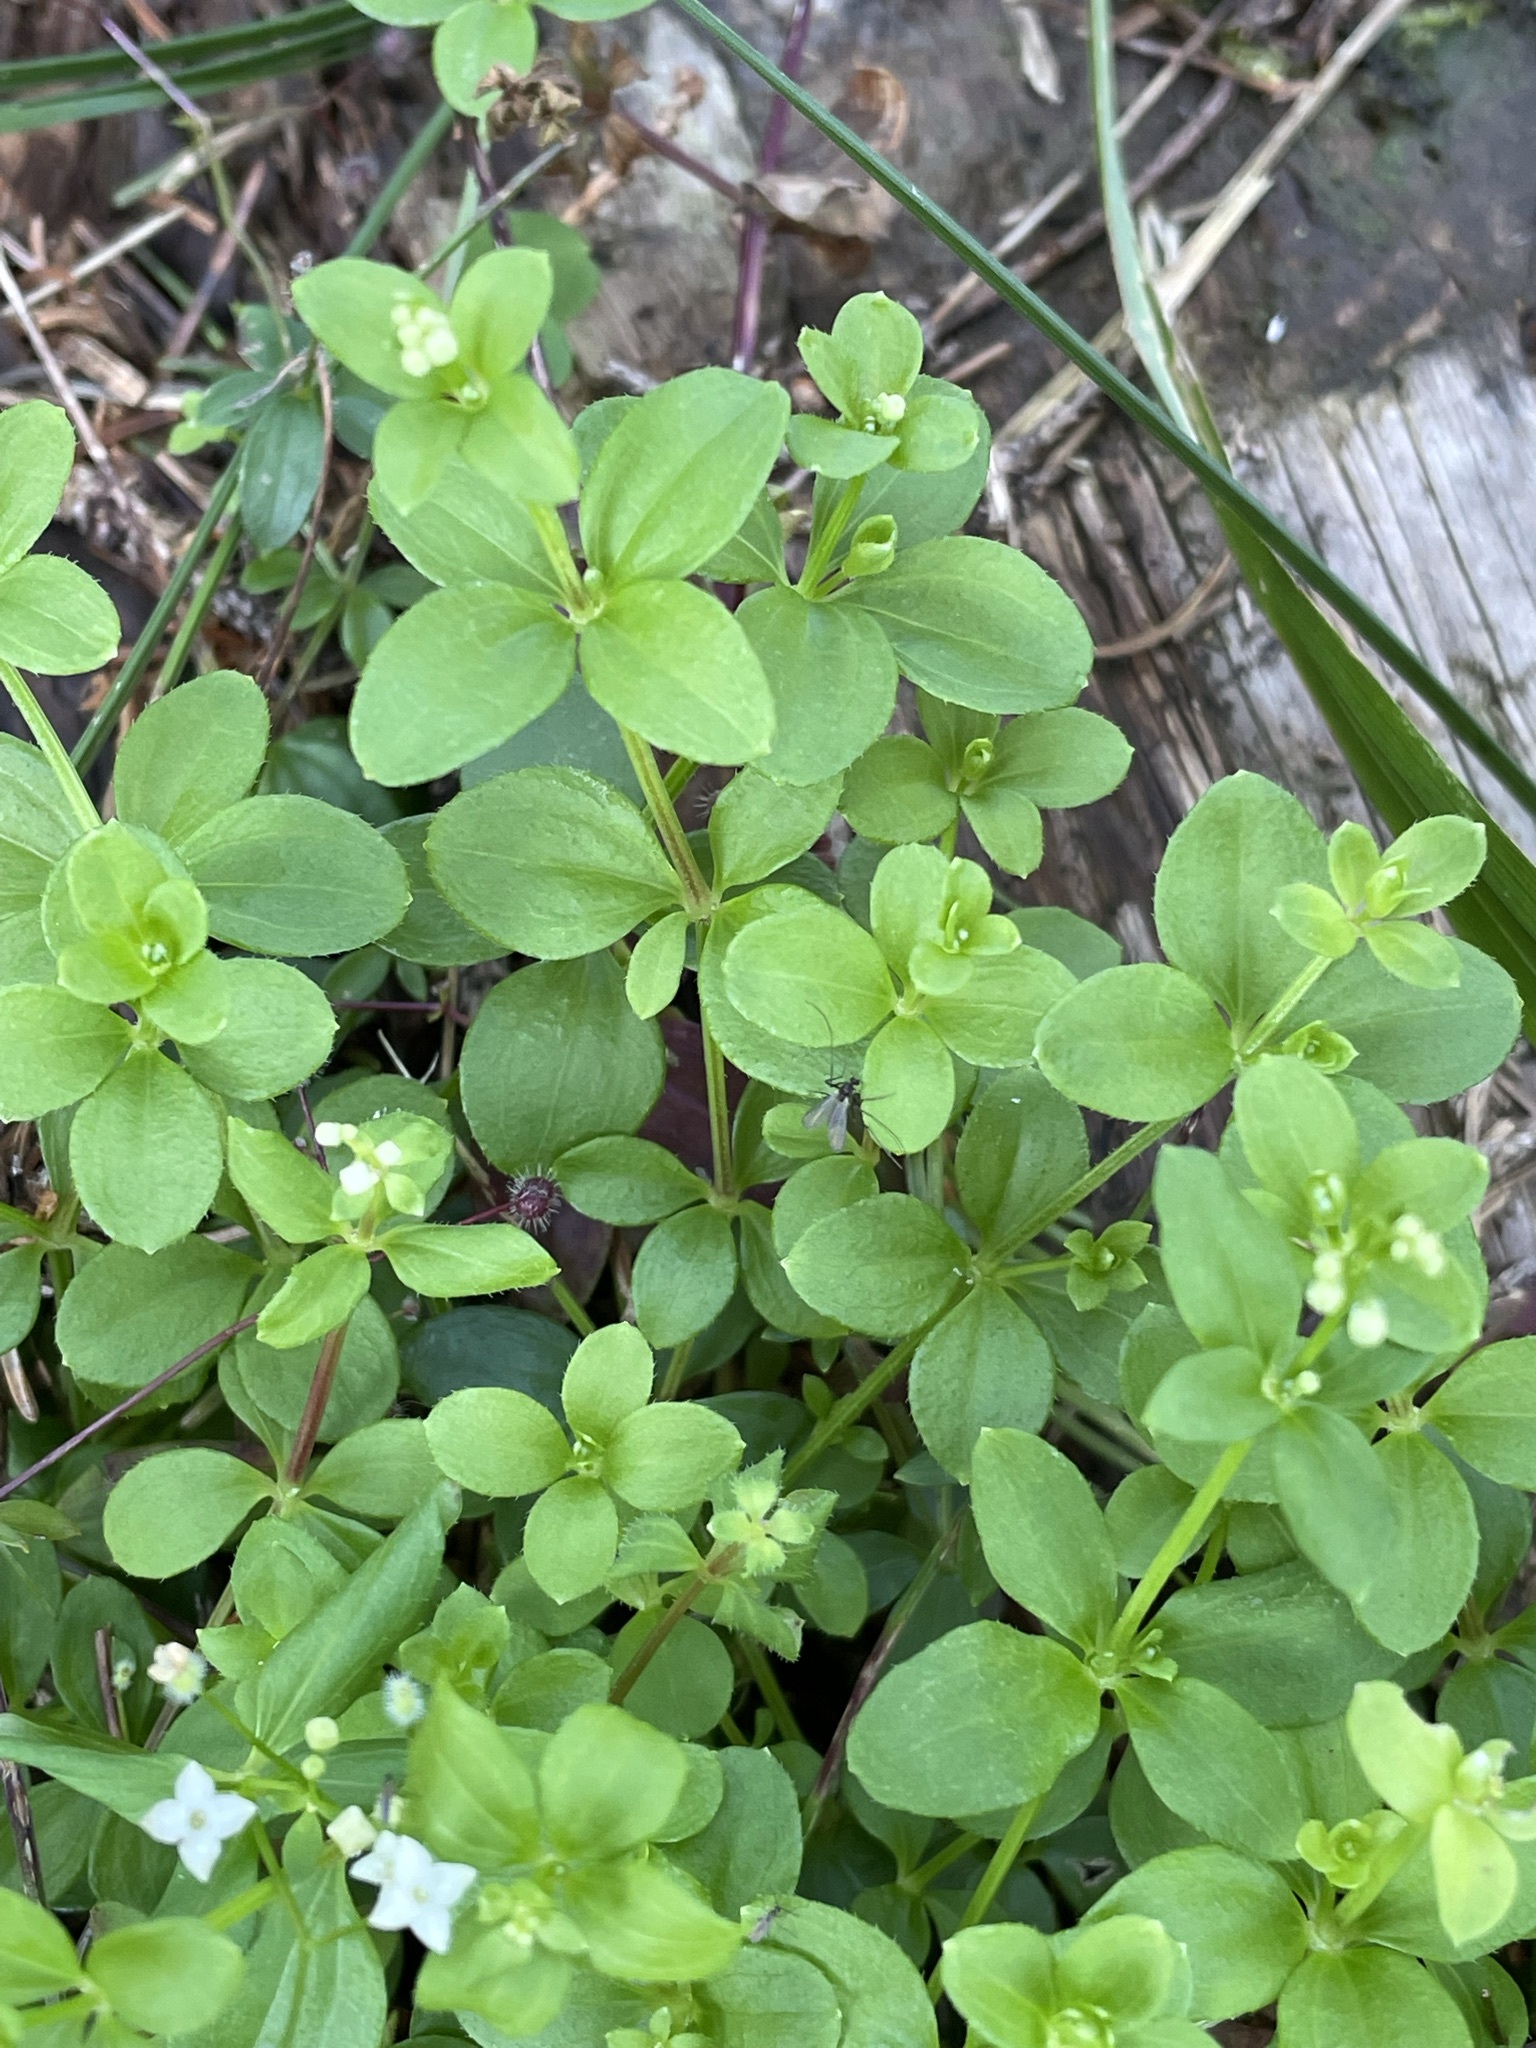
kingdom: Plantae
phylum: Tracheophyta
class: Magnoliopsida
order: Gentianales
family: Rubiaceae
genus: Galium
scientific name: Galium rotundifolium
